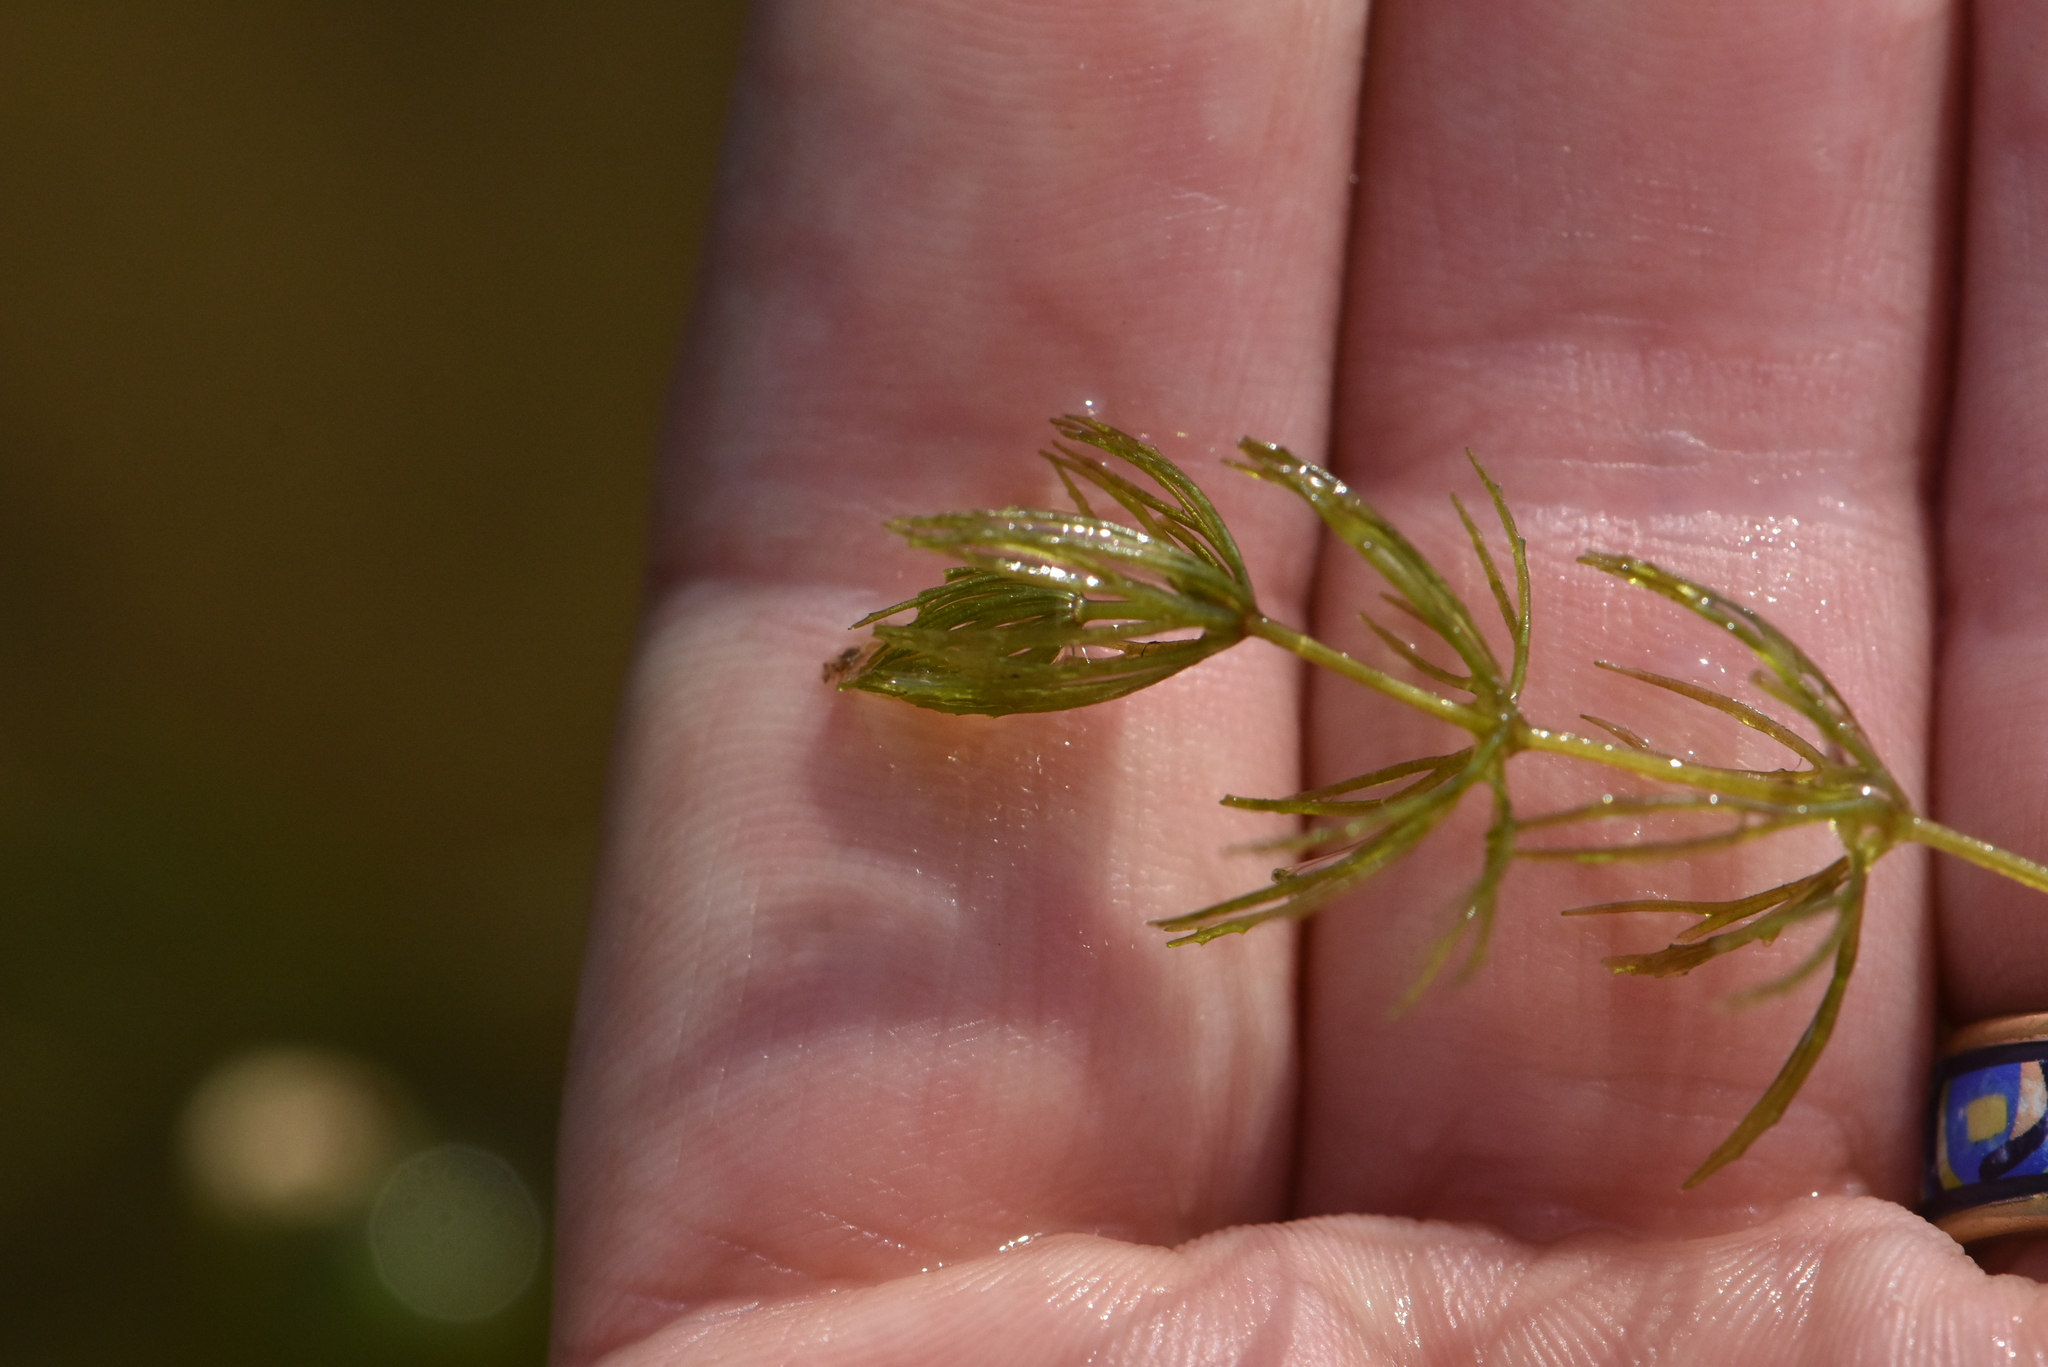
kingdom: Plantae
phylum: Tracheophyta
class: Magnoliopsida
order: Ceratophyllales
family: Ceratophyllaceae
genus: Ceratophyllum
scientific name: Ceratophyllum demersum
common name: Rigid hornwort
